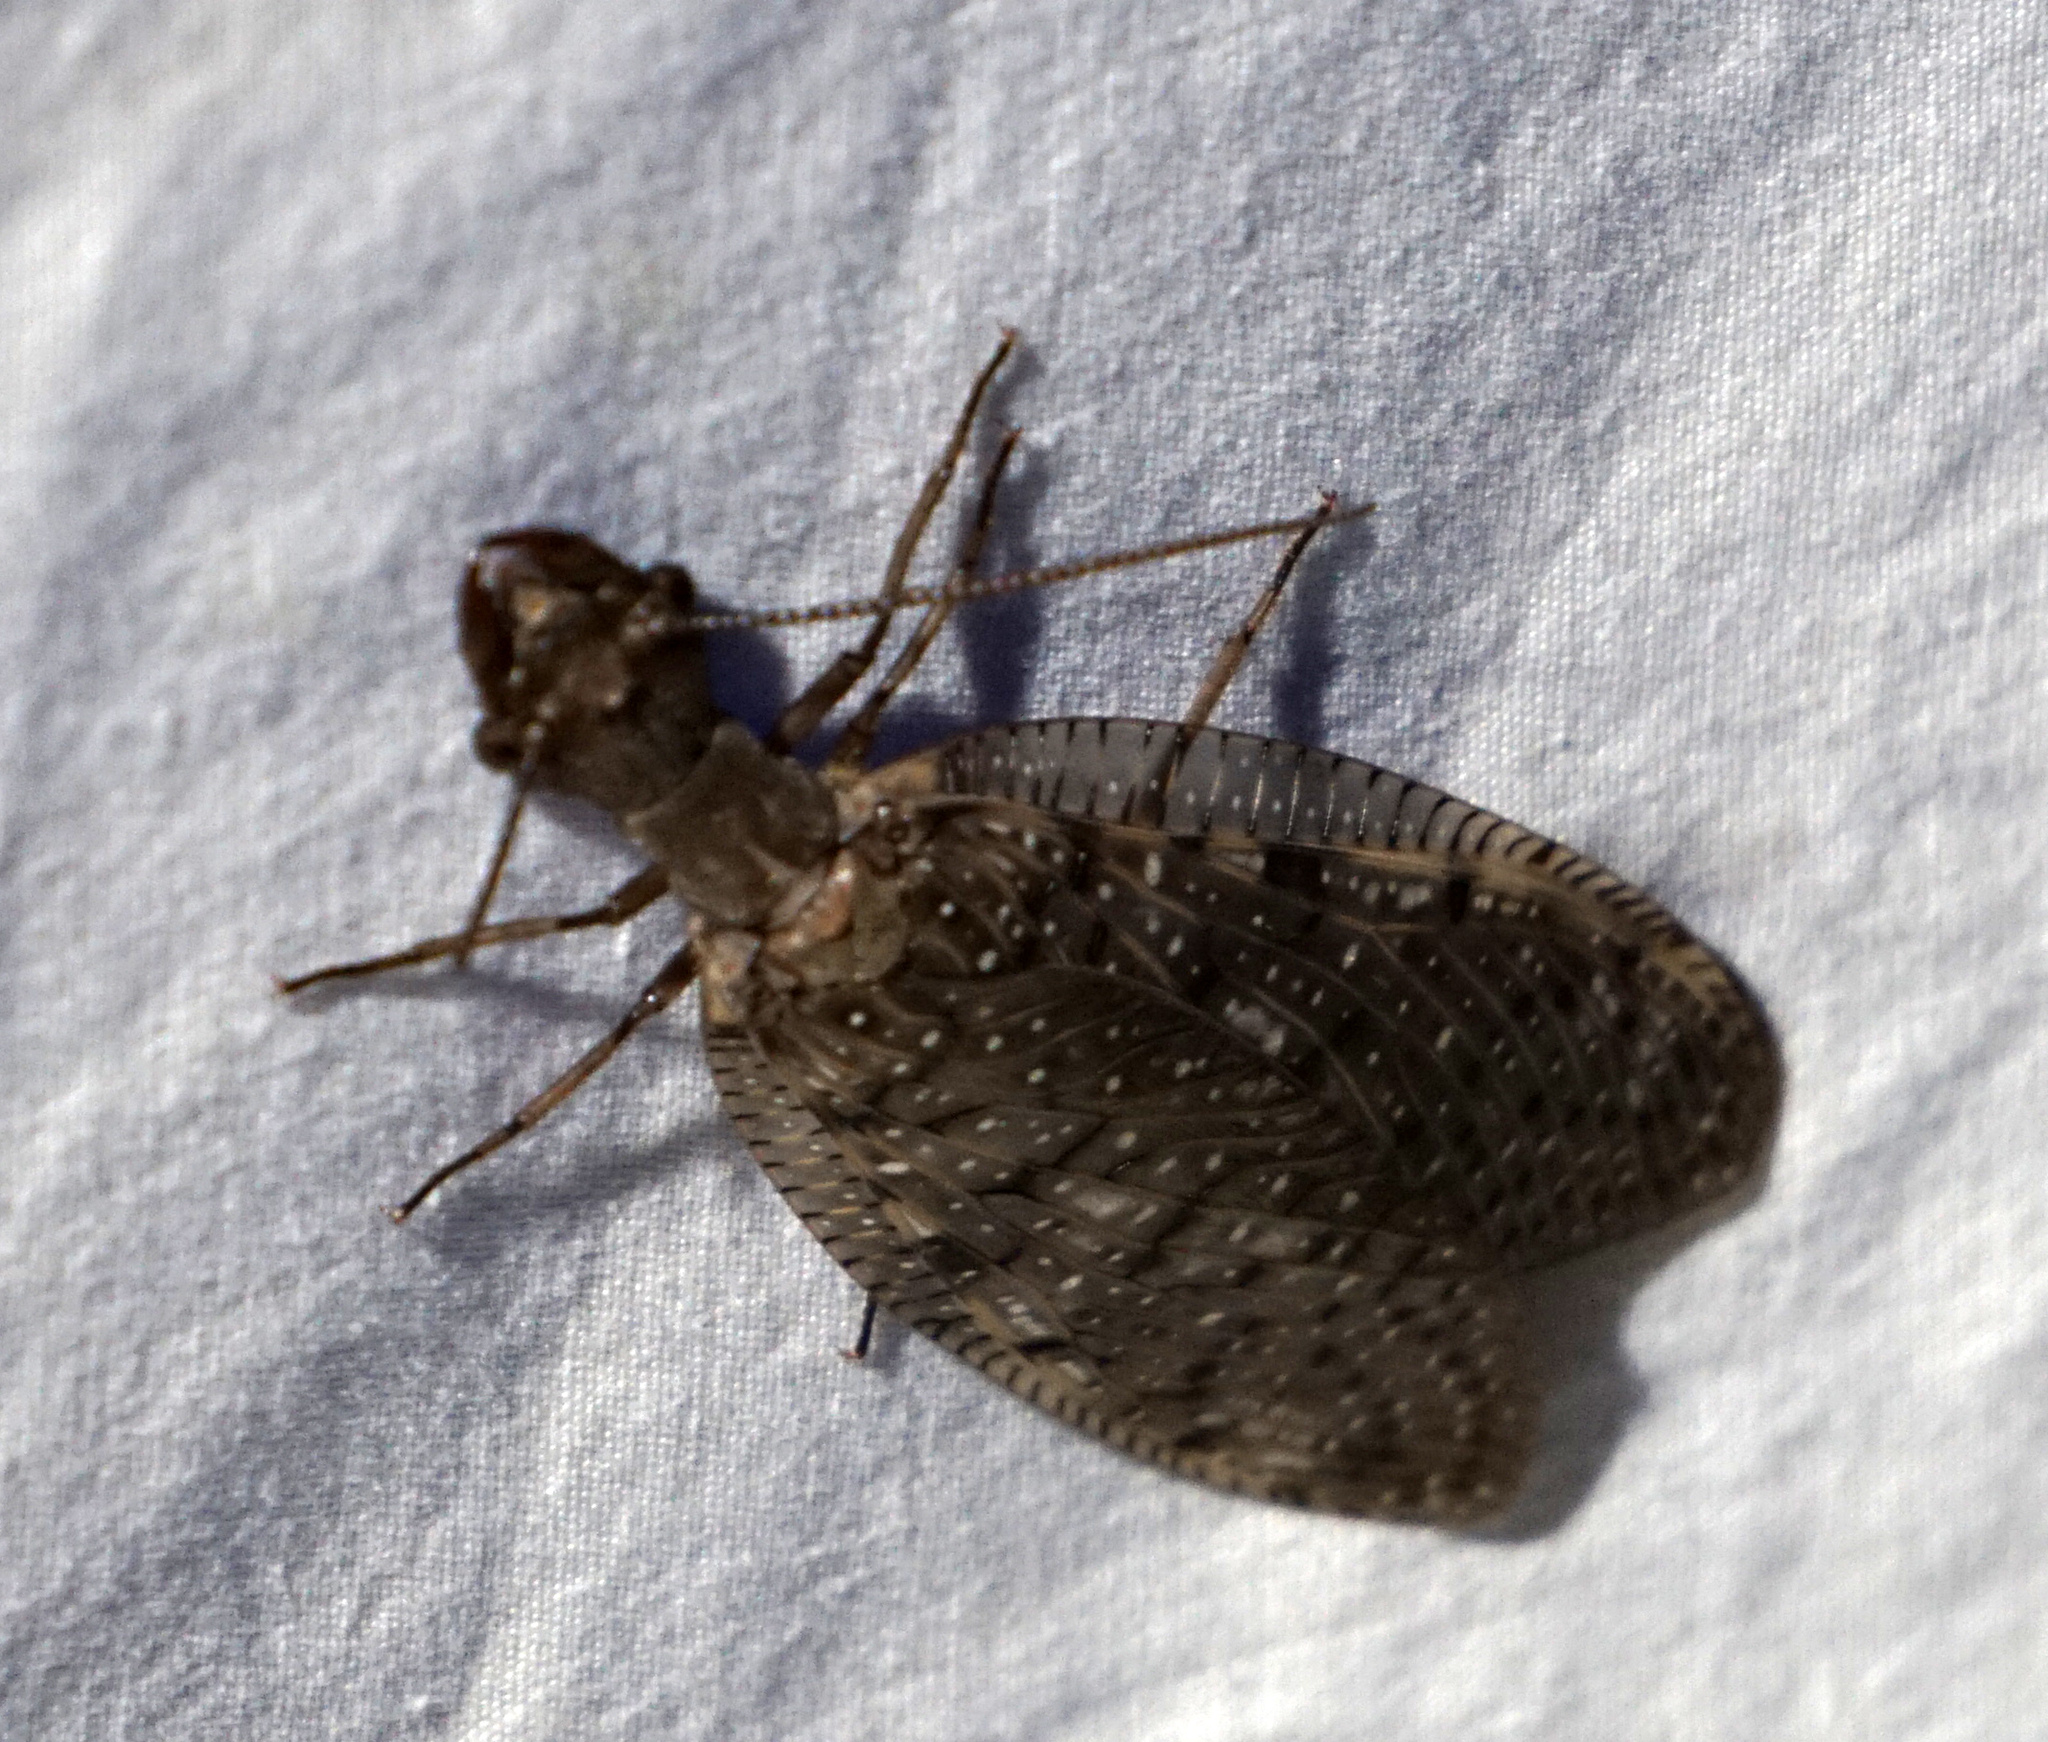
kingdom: Animalia
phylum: Arthropoda
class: Insecta
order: Megaloptera
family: Corydalidae
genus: Corydalus
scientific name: Corydalus cornutus
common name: Dobsonfly
